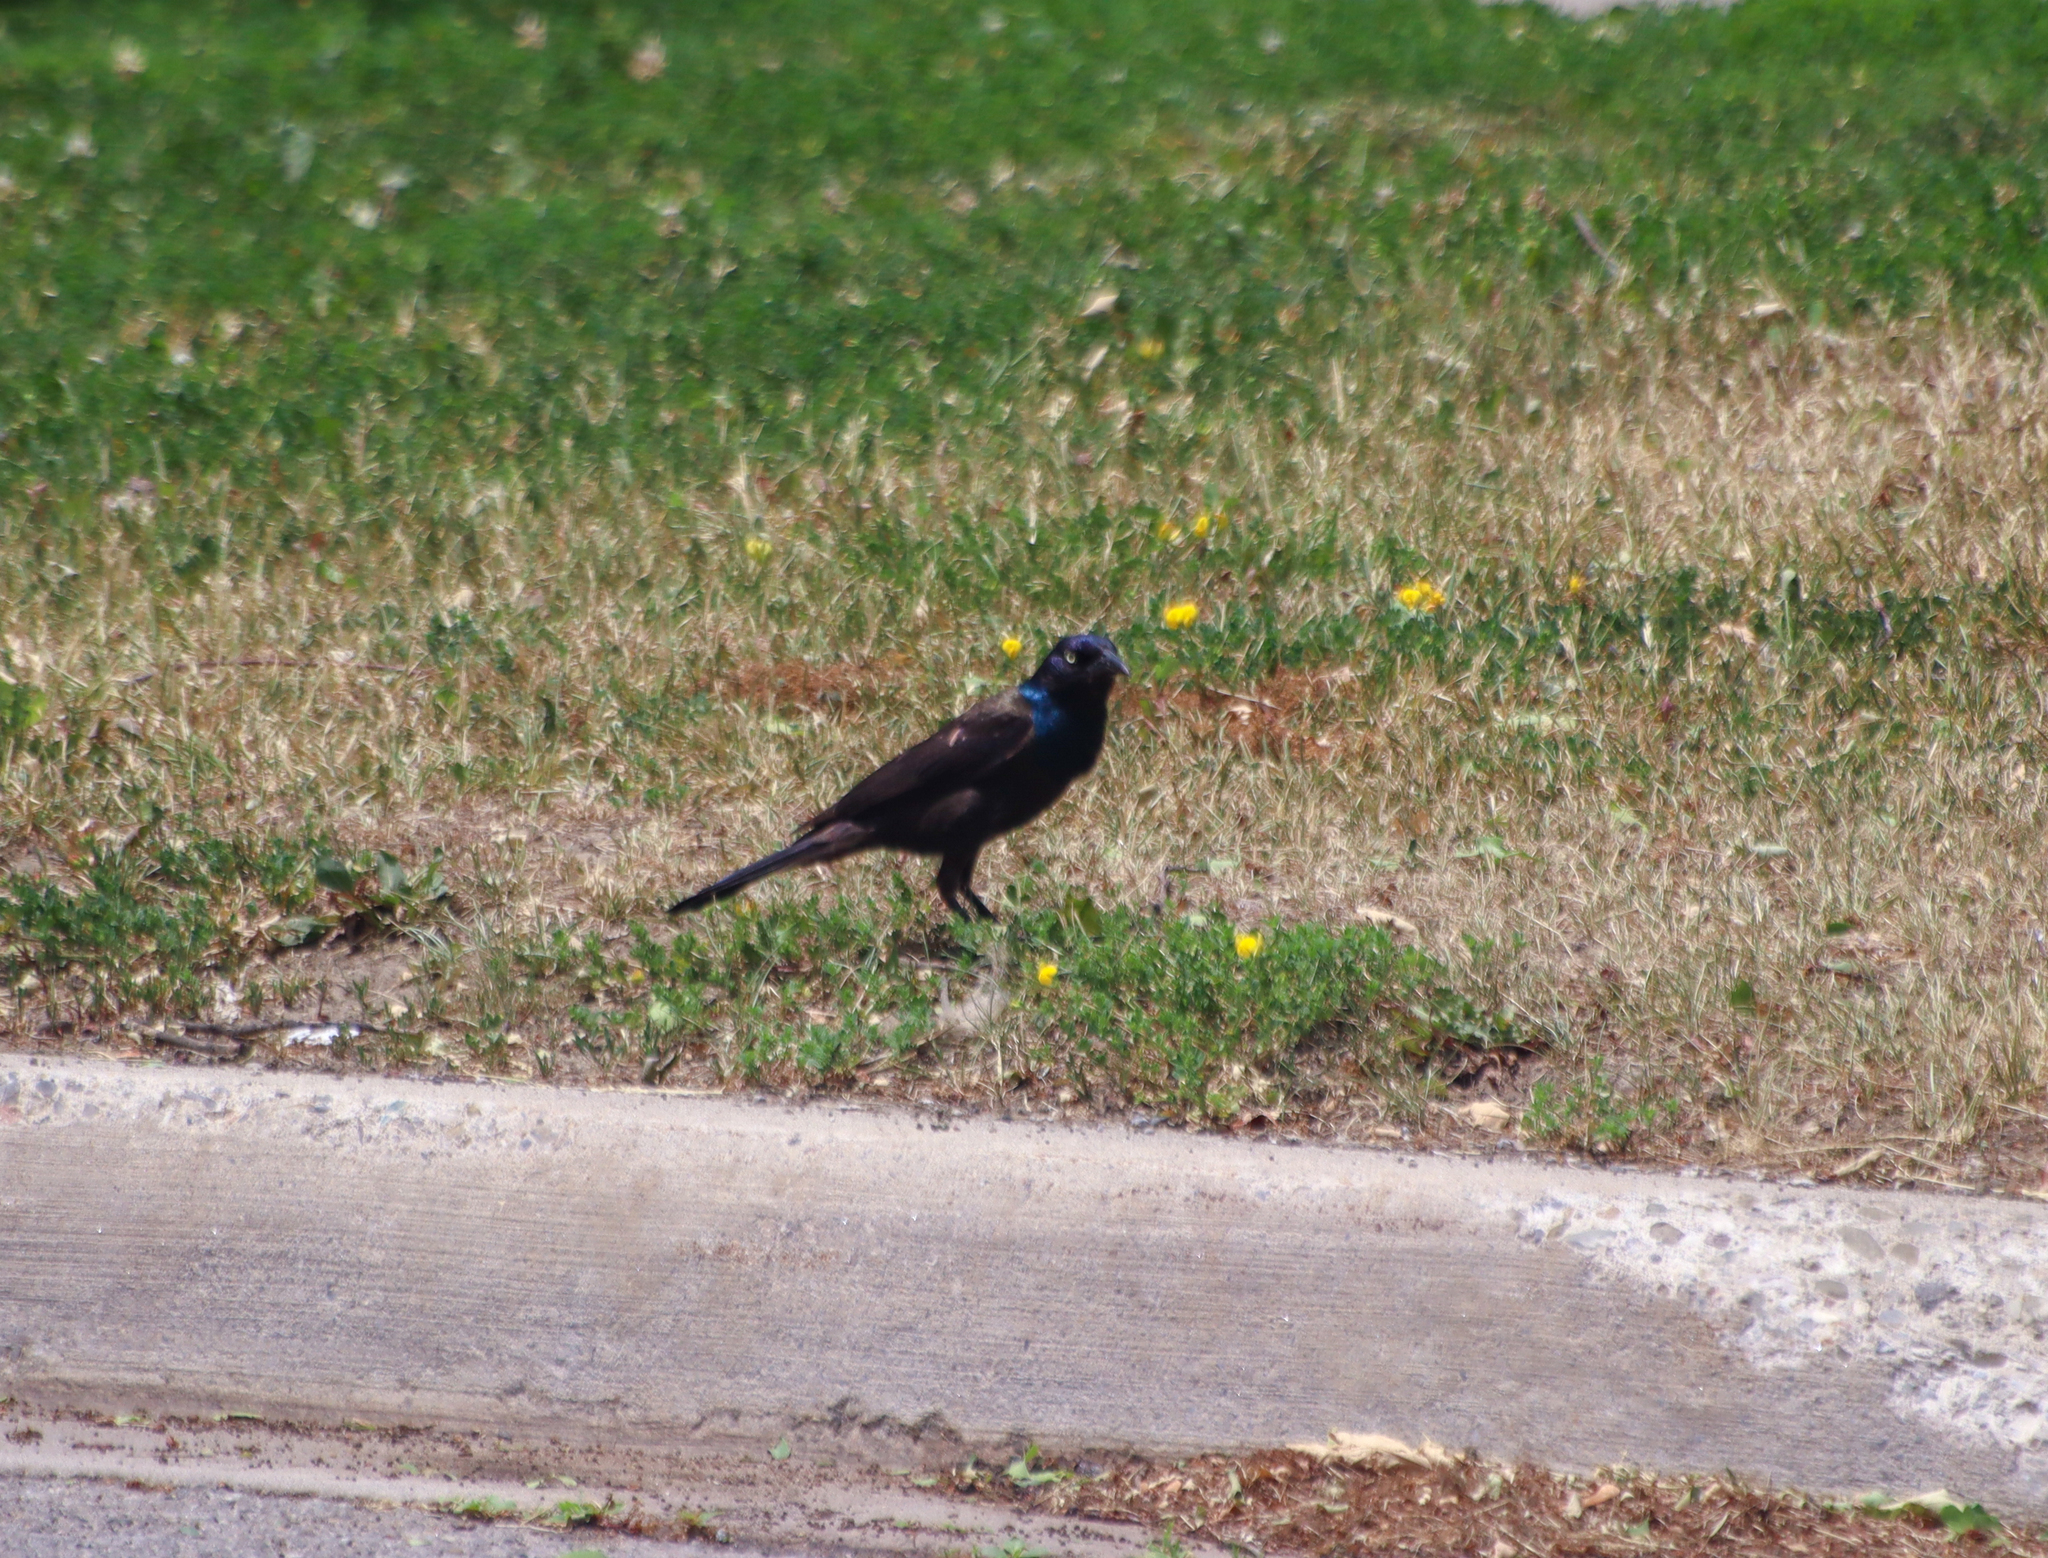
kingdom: Animalia
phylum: Chordata
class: Aves
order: Passeriformes
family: Icteridae
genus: Quiscalus
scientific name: Quiscalus quiscula
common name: Common grackle
